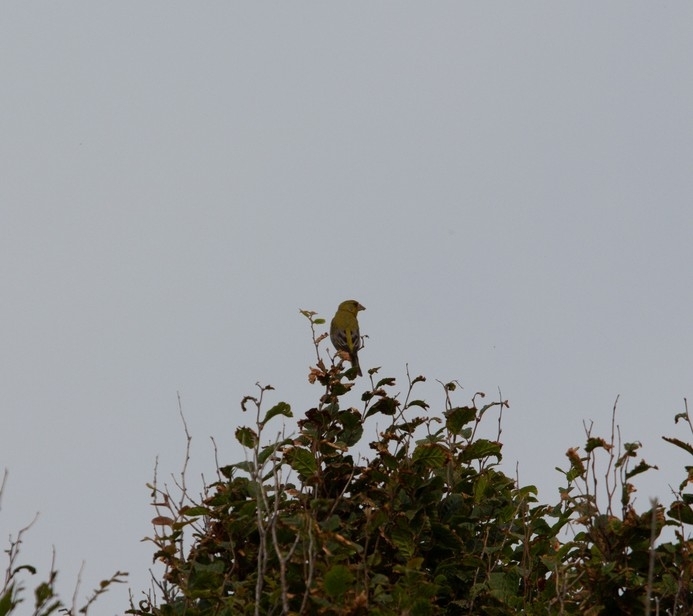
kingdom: Plantae
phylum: Tracheophyta
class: Liliopsida
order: Poales
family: Poaceae
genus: Chloris
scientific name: Chloris chloris
